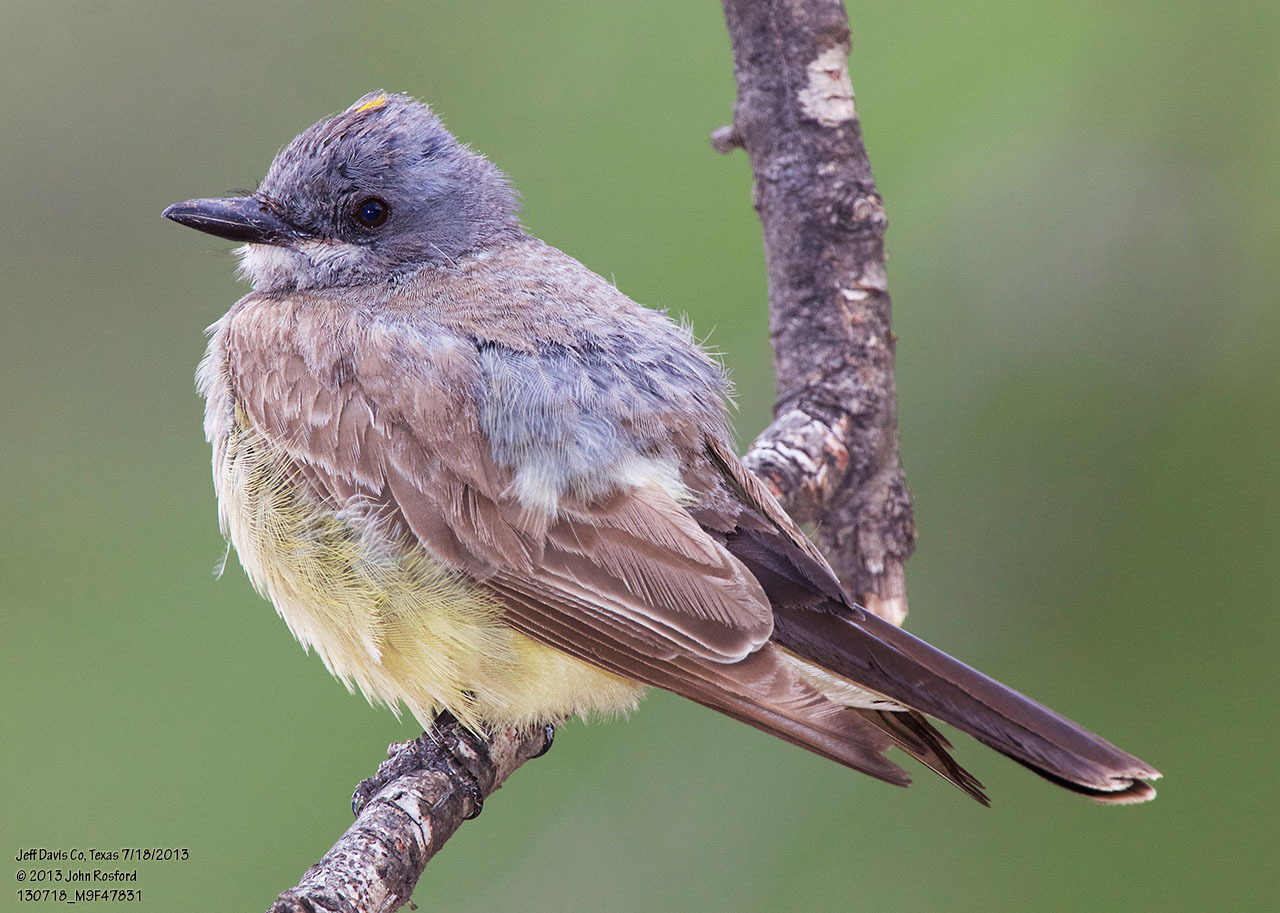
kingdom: Animalia
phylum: Chordata
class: Aves
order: Passeriformes
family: Tyrannidae
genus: Tyrannus
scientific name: Tyrannus vociferans
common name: Cassin's kingbird
